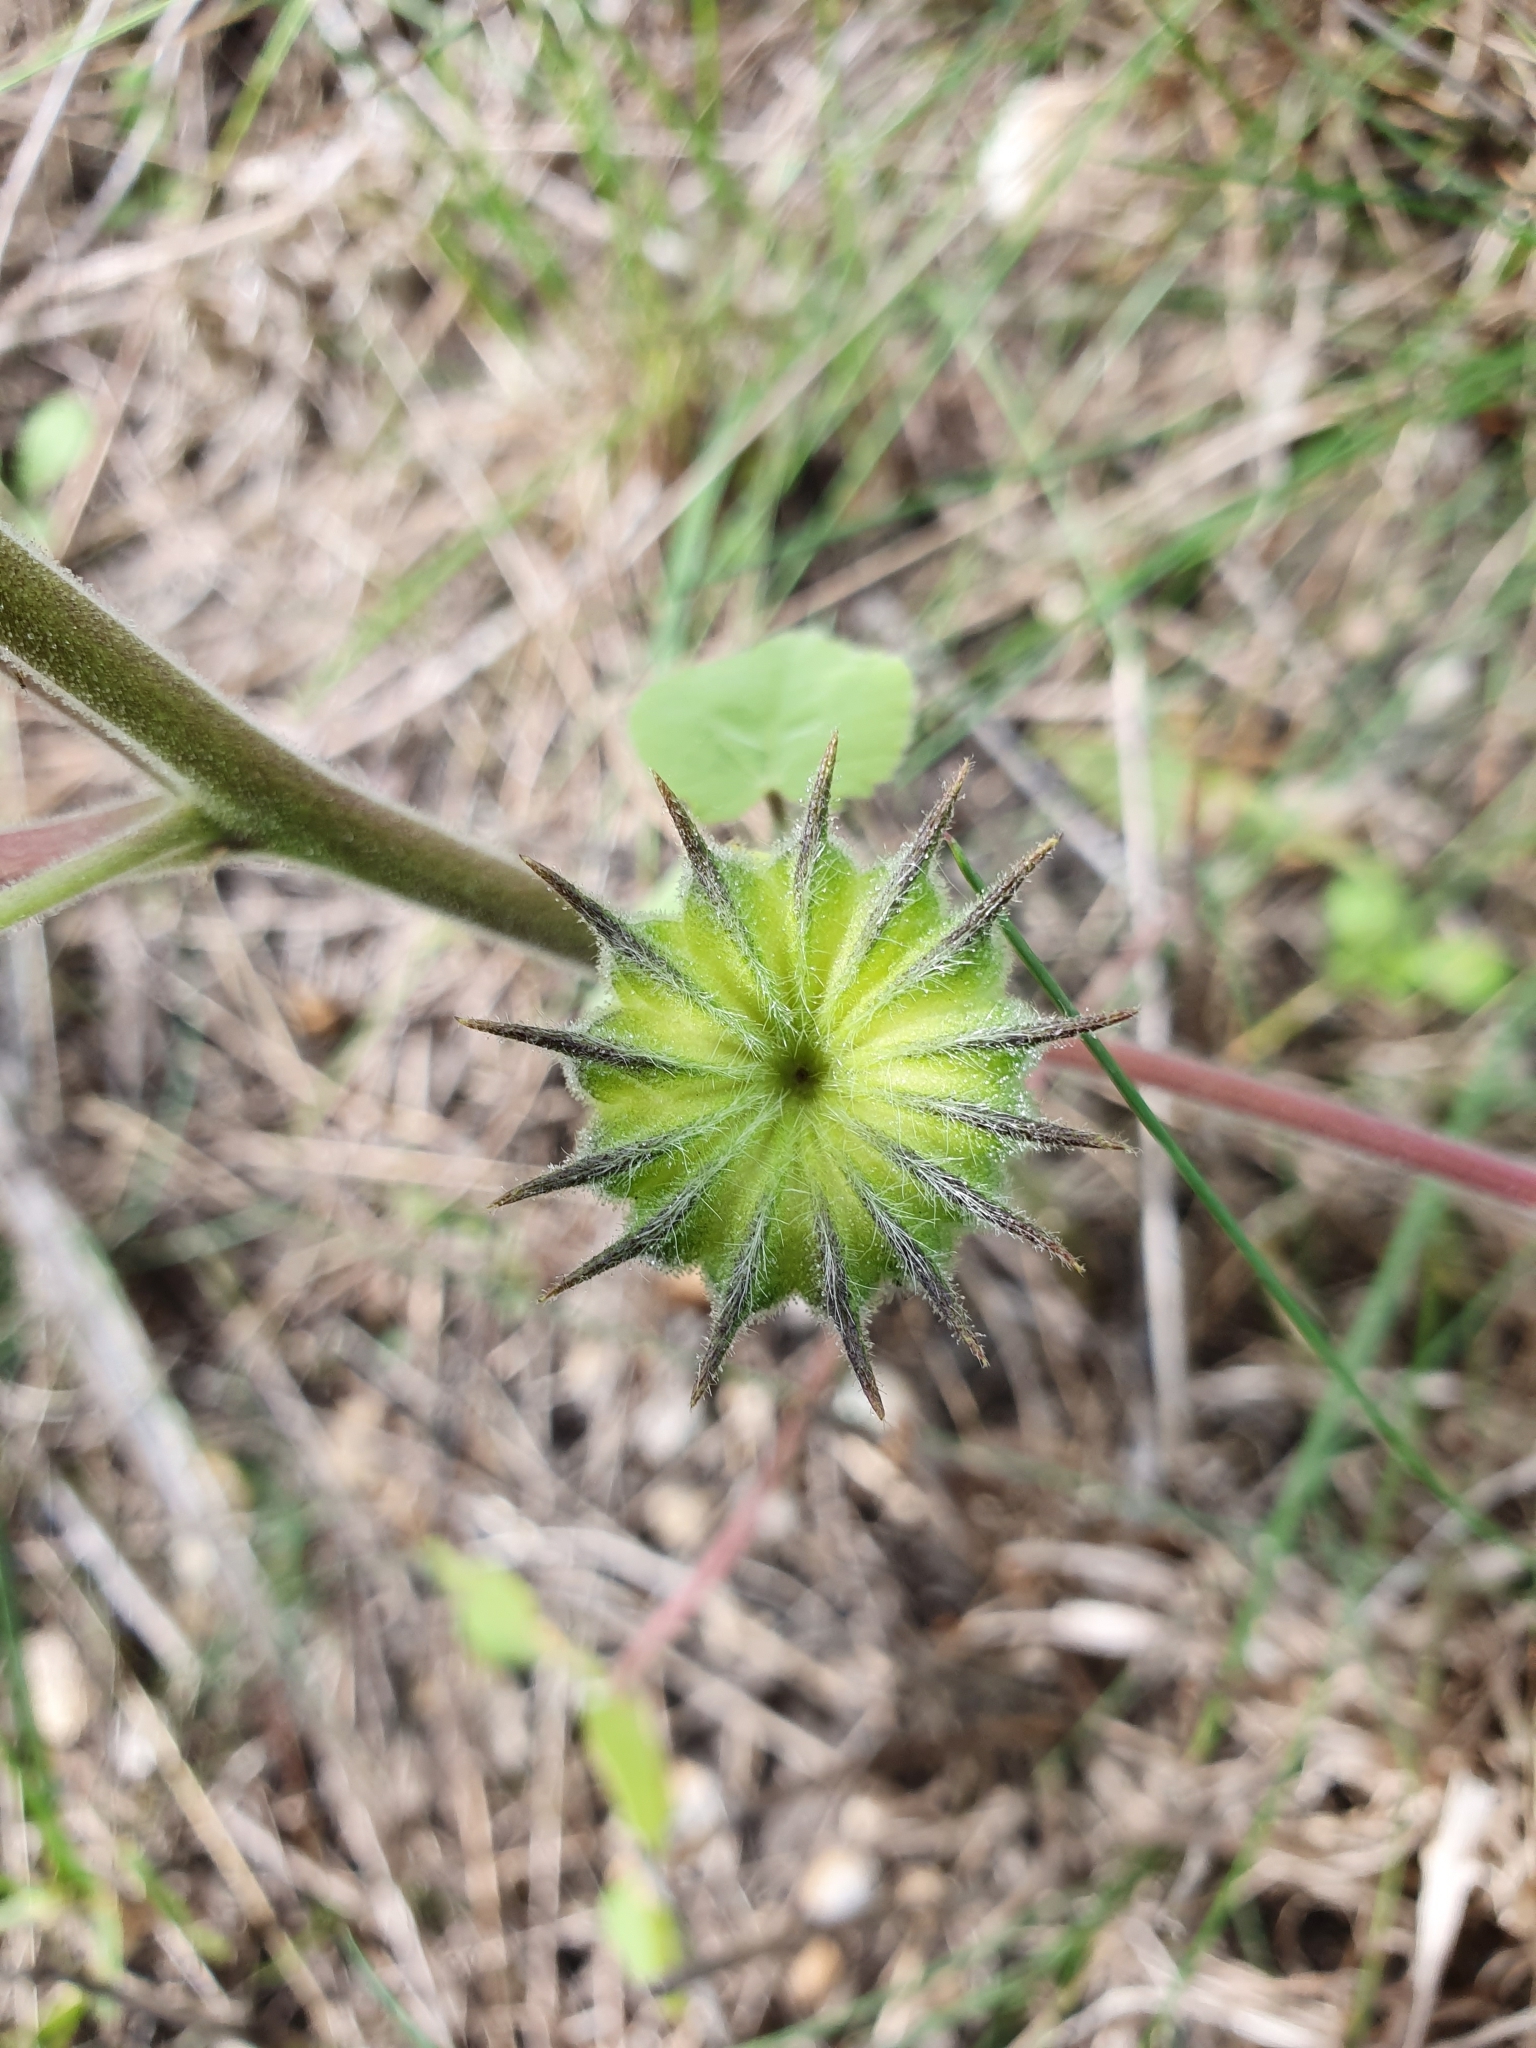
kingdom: Plantae
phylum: Tracheophyta
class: Magnoliopsida
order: Malvales
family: Malvaceae
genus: Abutilon
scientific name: Abutilon theophrasti
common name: Velvetleaf
